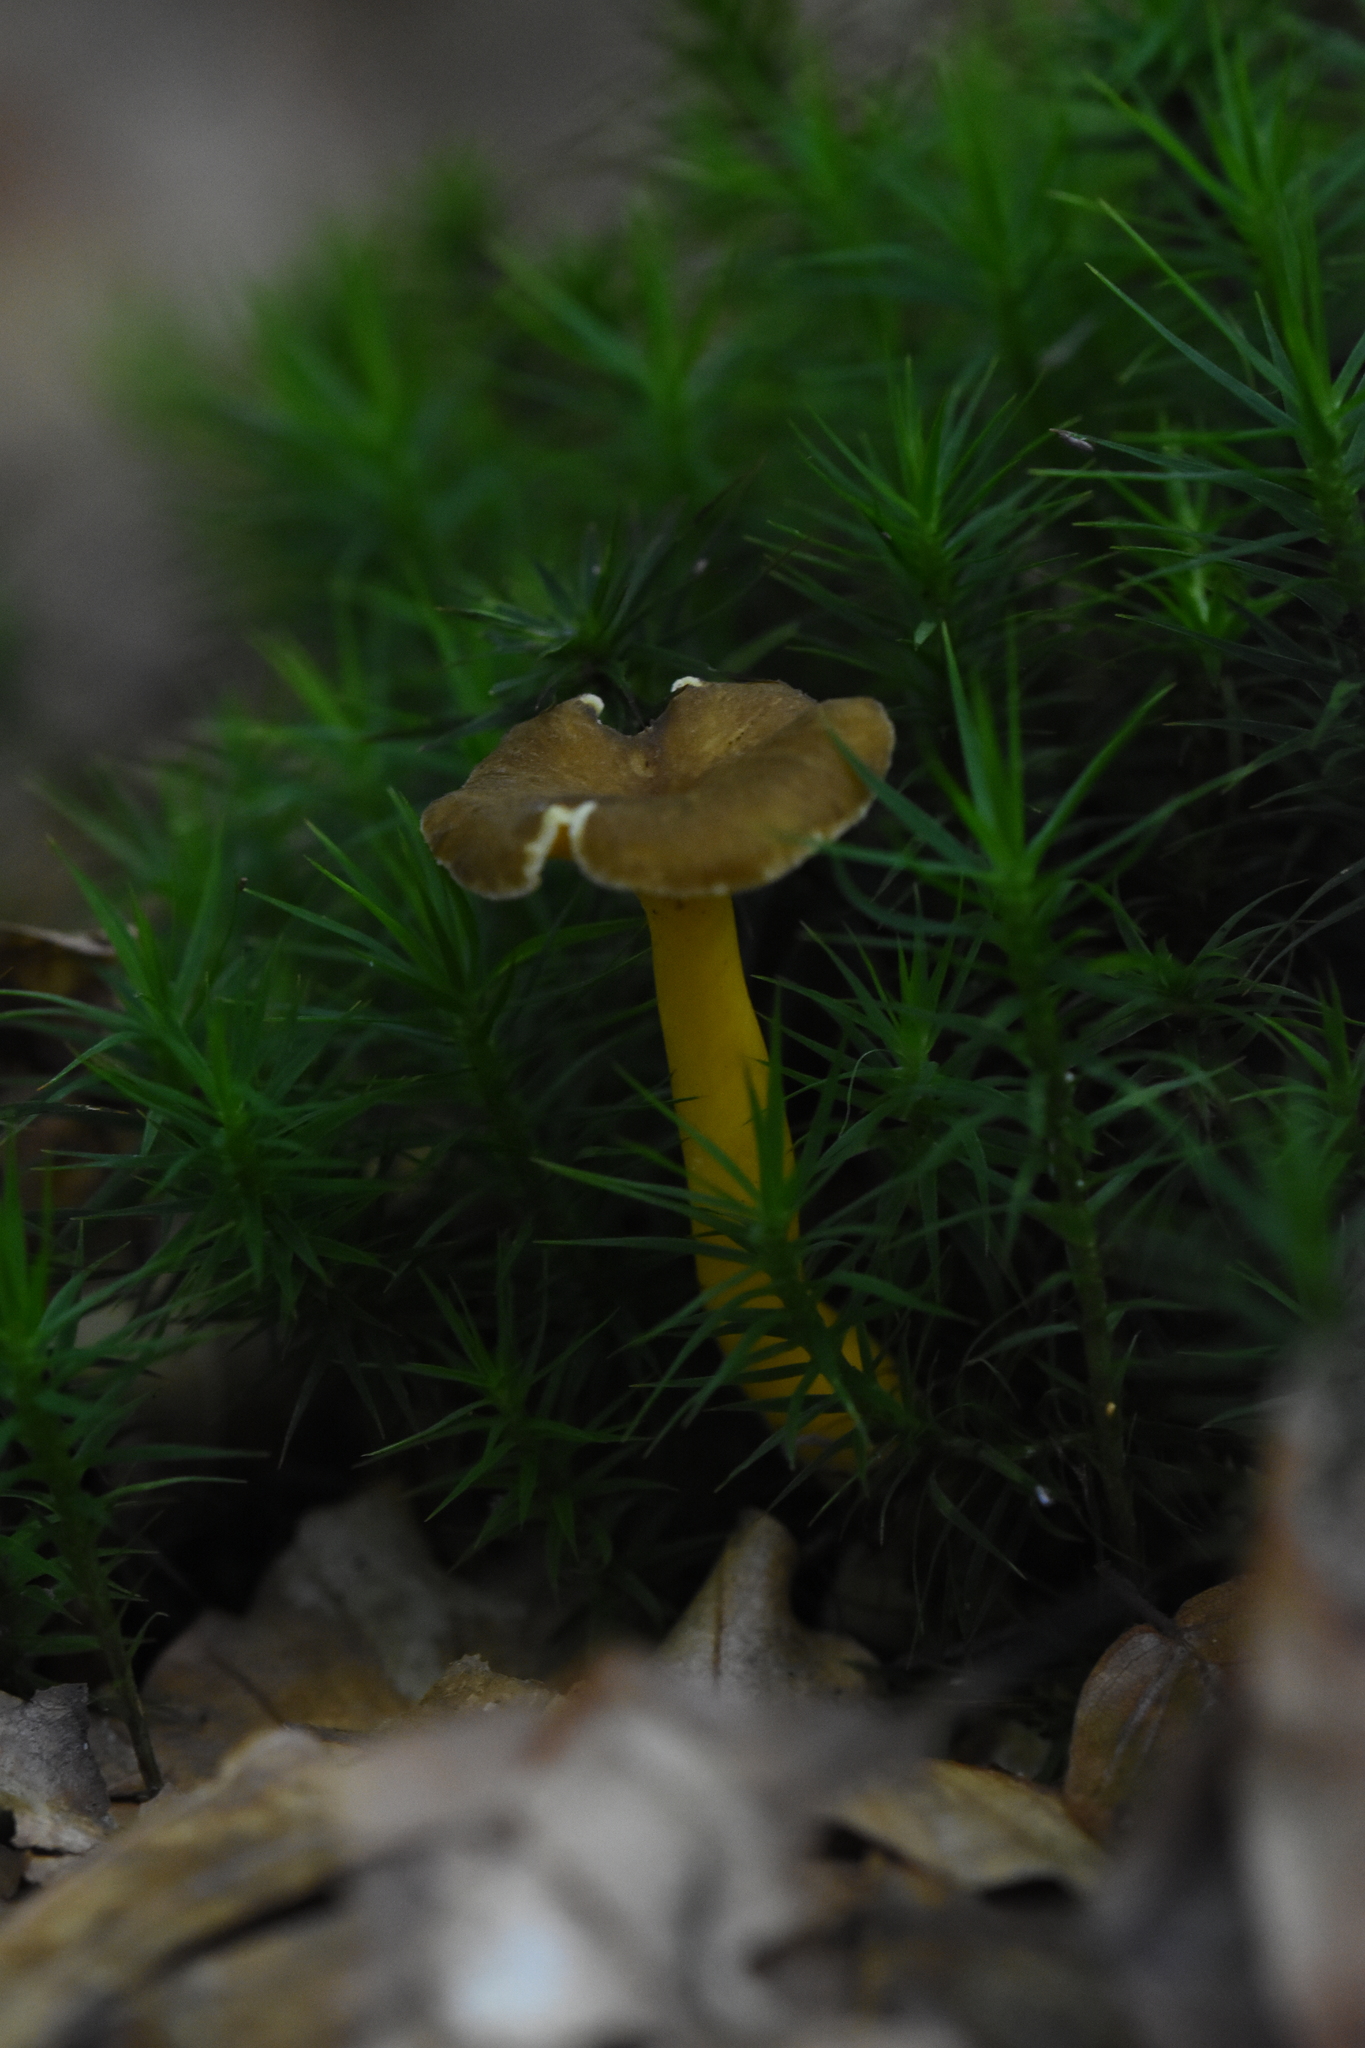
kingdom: Fungi
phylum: Basidiomycota
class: Agaricomycetes
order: Cantharellales
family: Hydnaceae
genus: Craterellus
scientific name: Craterellus tubaeformis
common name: Yellowfoot
